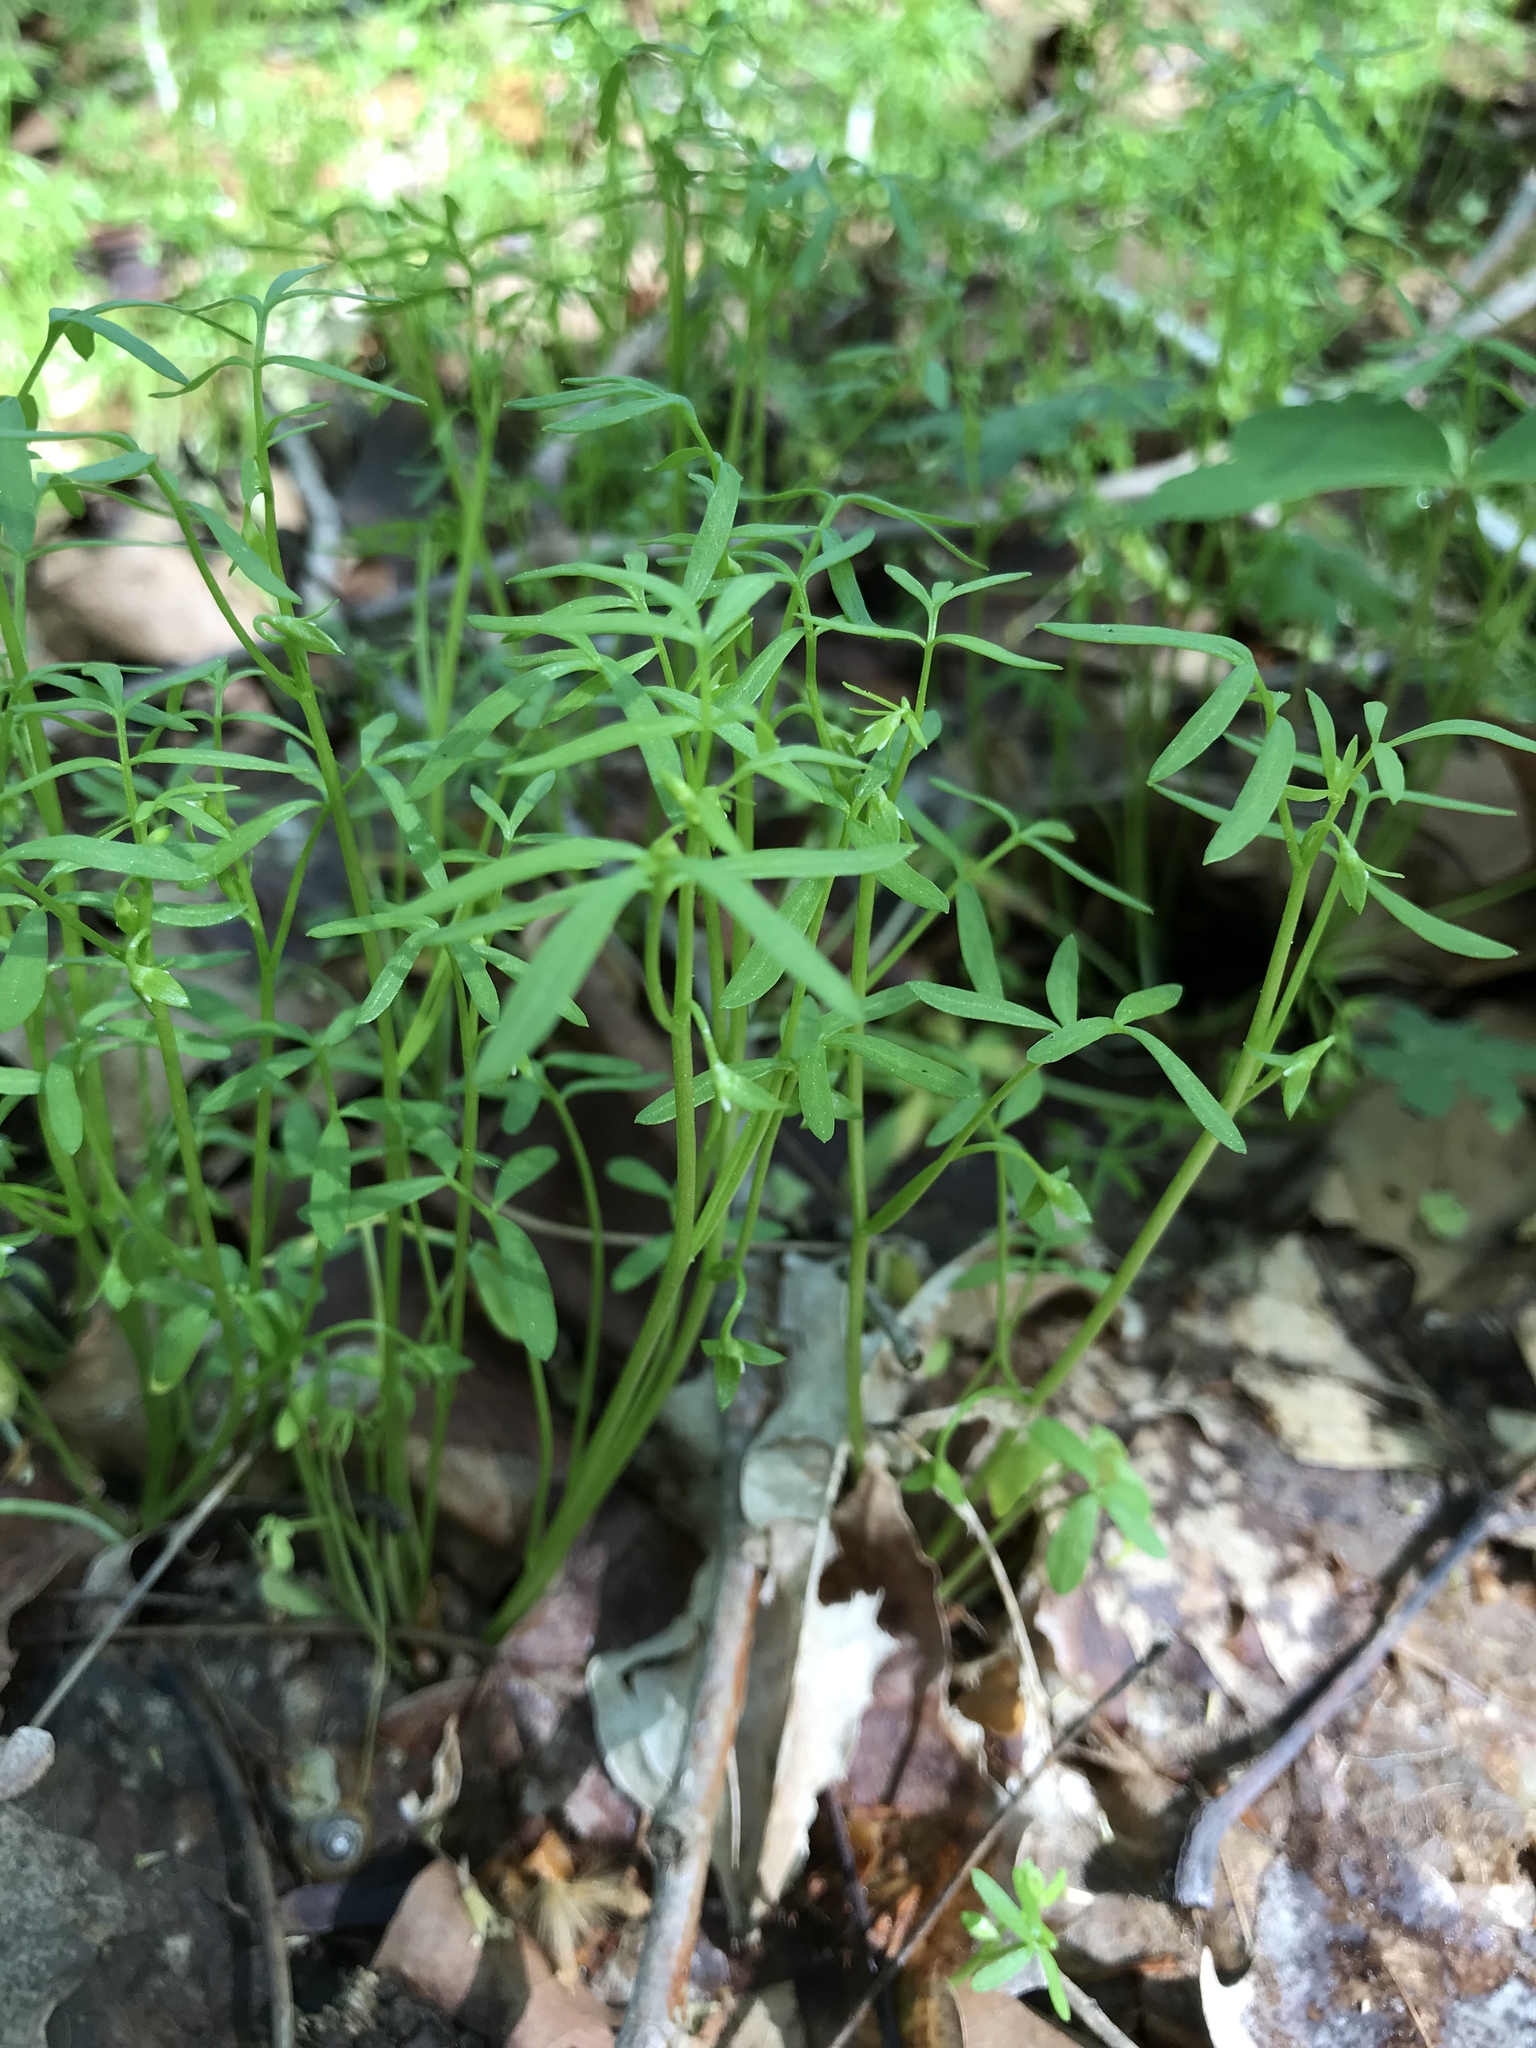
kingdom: Plantae
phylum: Tracheophyta
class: Magnoliopsida
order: Brassicales
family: Limnanthaceae
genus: Floerkea
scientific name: Floerkea proserpinacoides
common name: False mermaid
